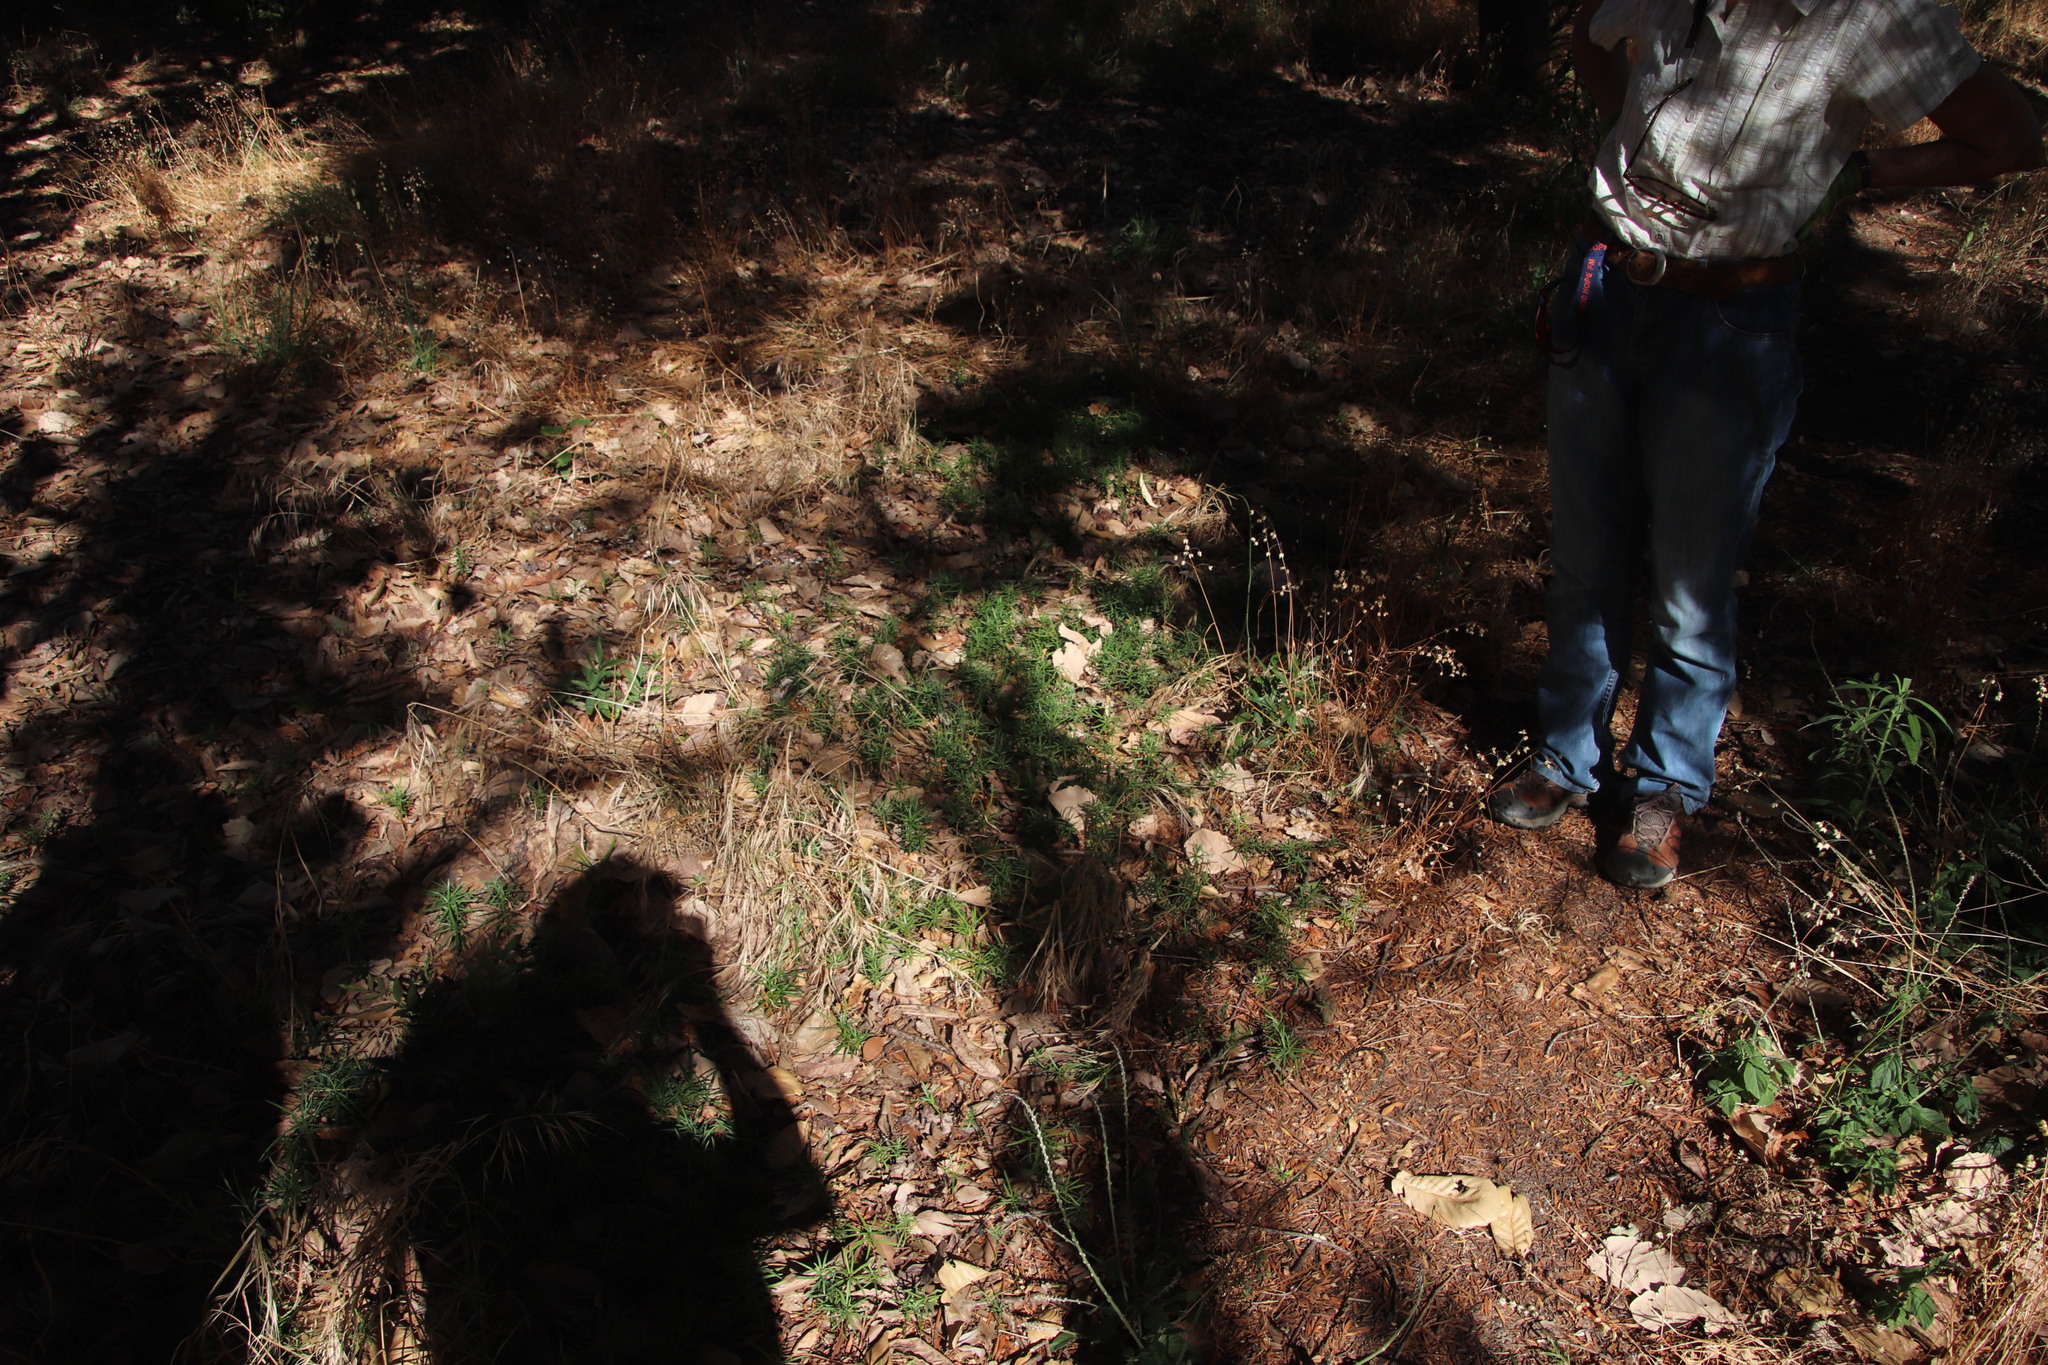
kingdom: Plantae
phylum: Tracheophyta
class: Pinopsida
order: Pinales
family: Podocarpaceae
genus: Afrocarpus
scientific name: Afrocarpus falcatus
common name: Bastard yellowwood
